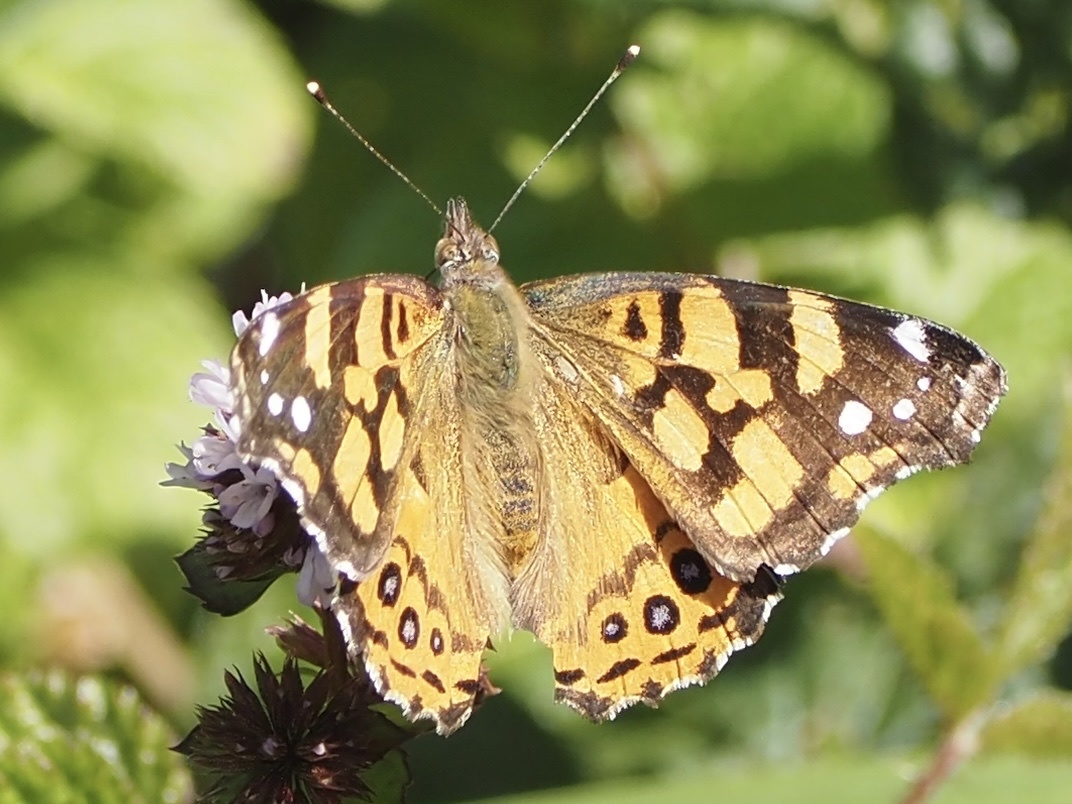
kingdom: Animalia
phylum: Arthropoda
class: Insecta
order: Lepidoptera
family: Nymphalidae
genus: Vanessa
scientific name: Vanessa annabella
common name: West coast lady
